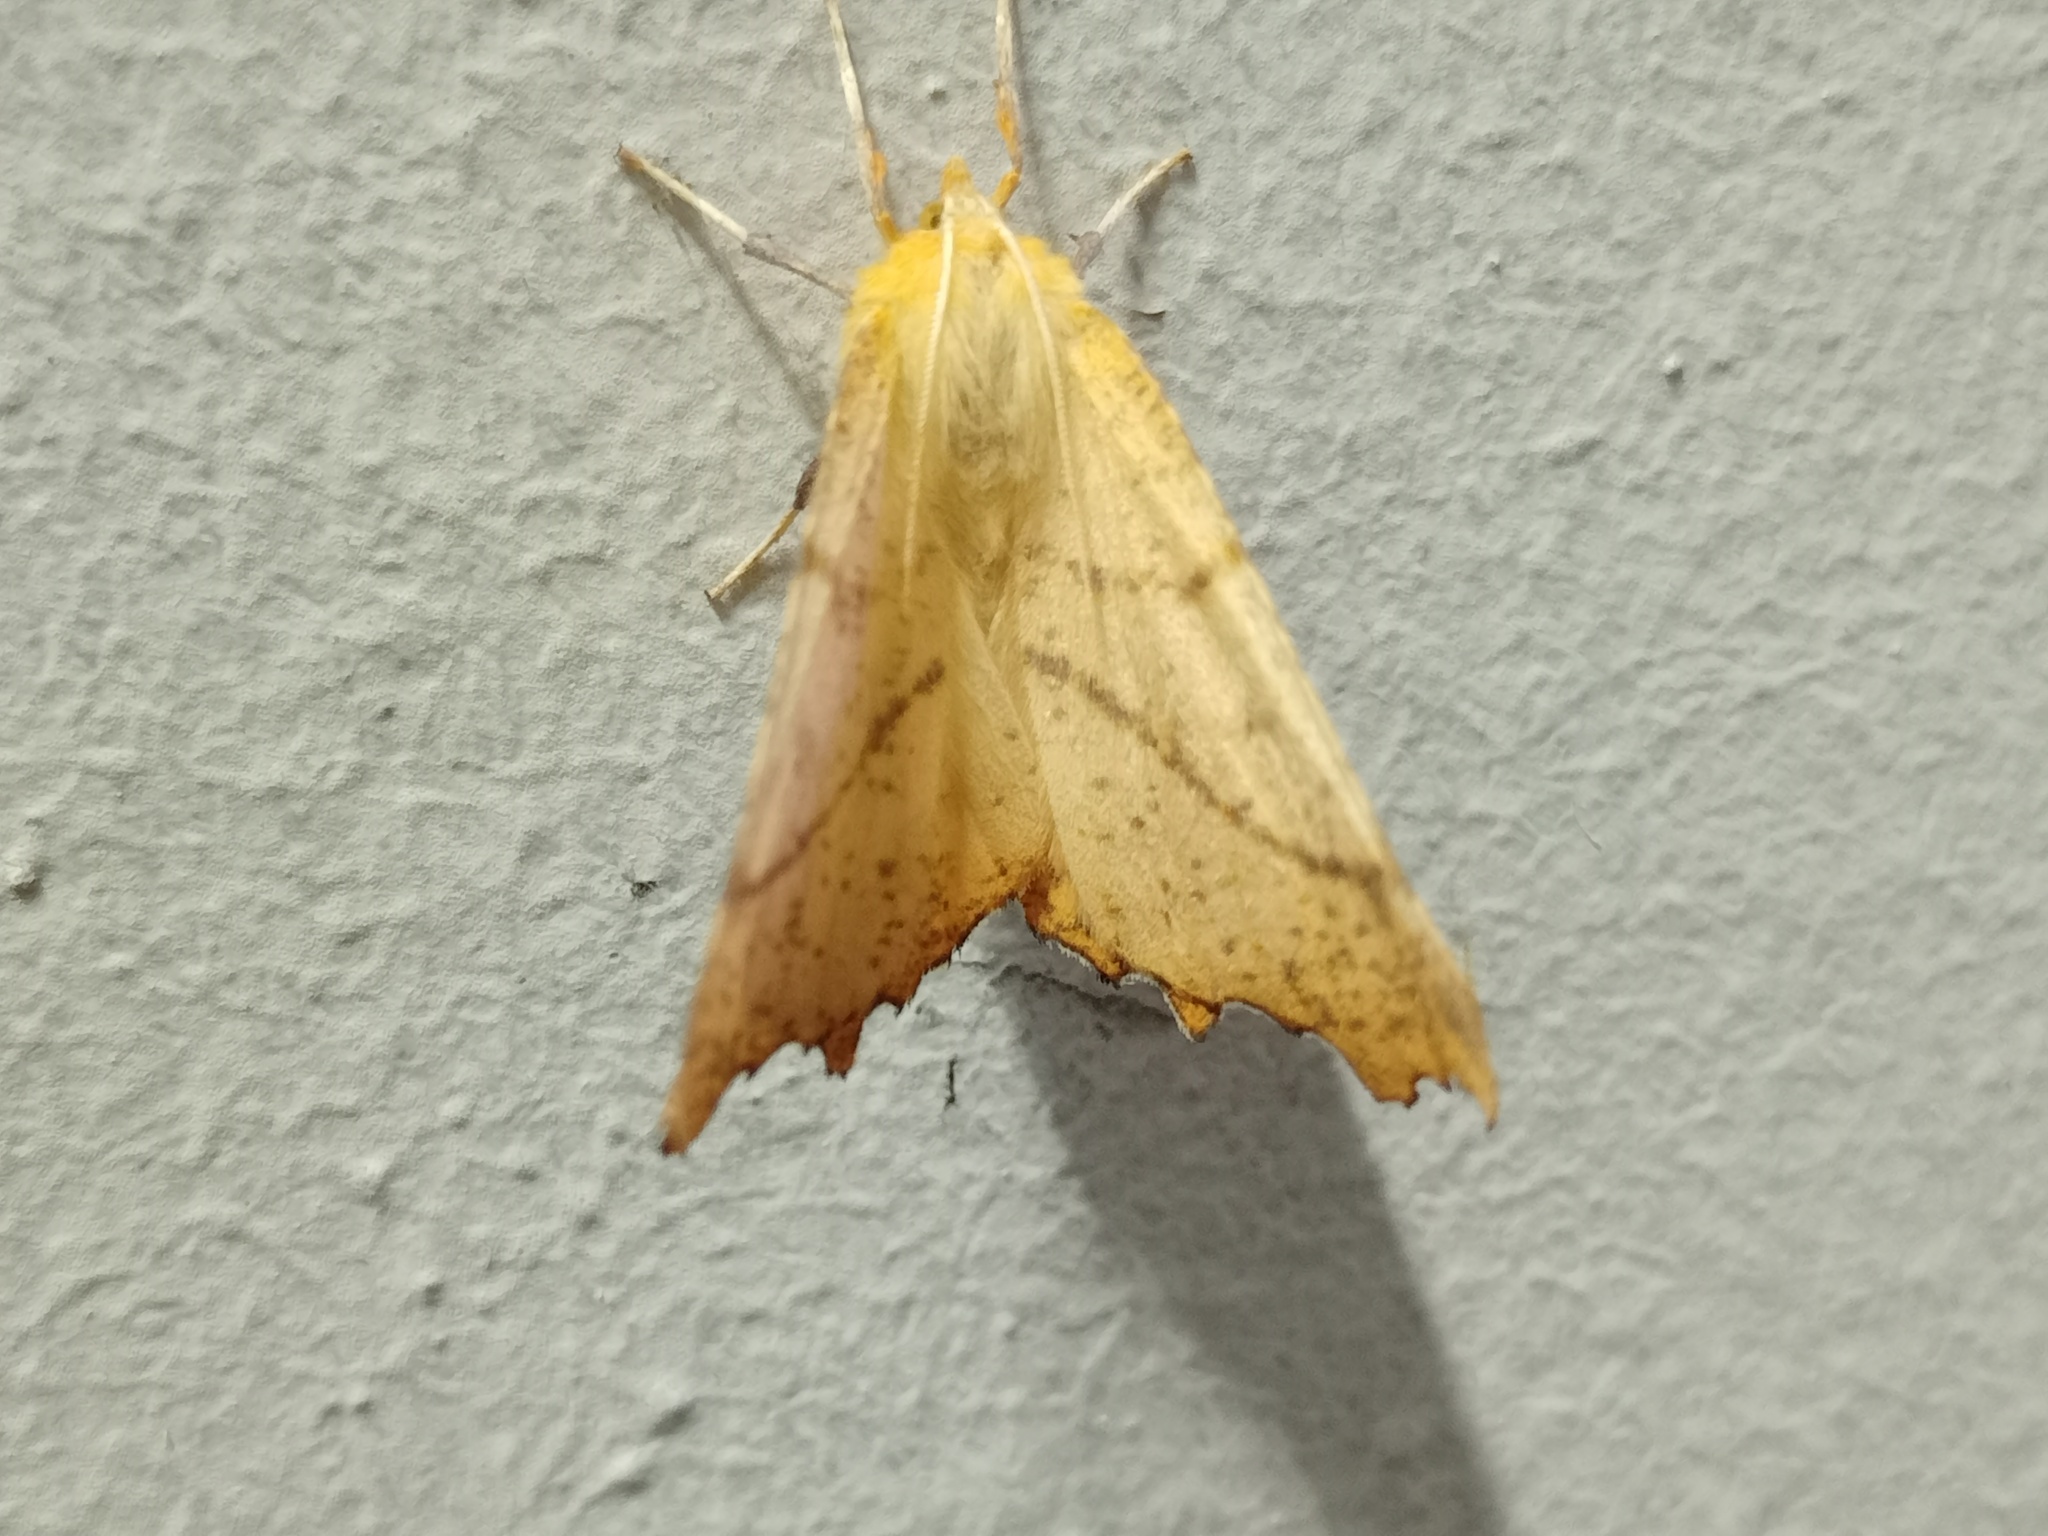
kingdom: Animalia
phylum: Arthropoda
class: Insecta
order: Lepidoptera
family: Geometridae
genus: Ennomos
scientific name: Ennomos autumnaria
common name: Large thorn
